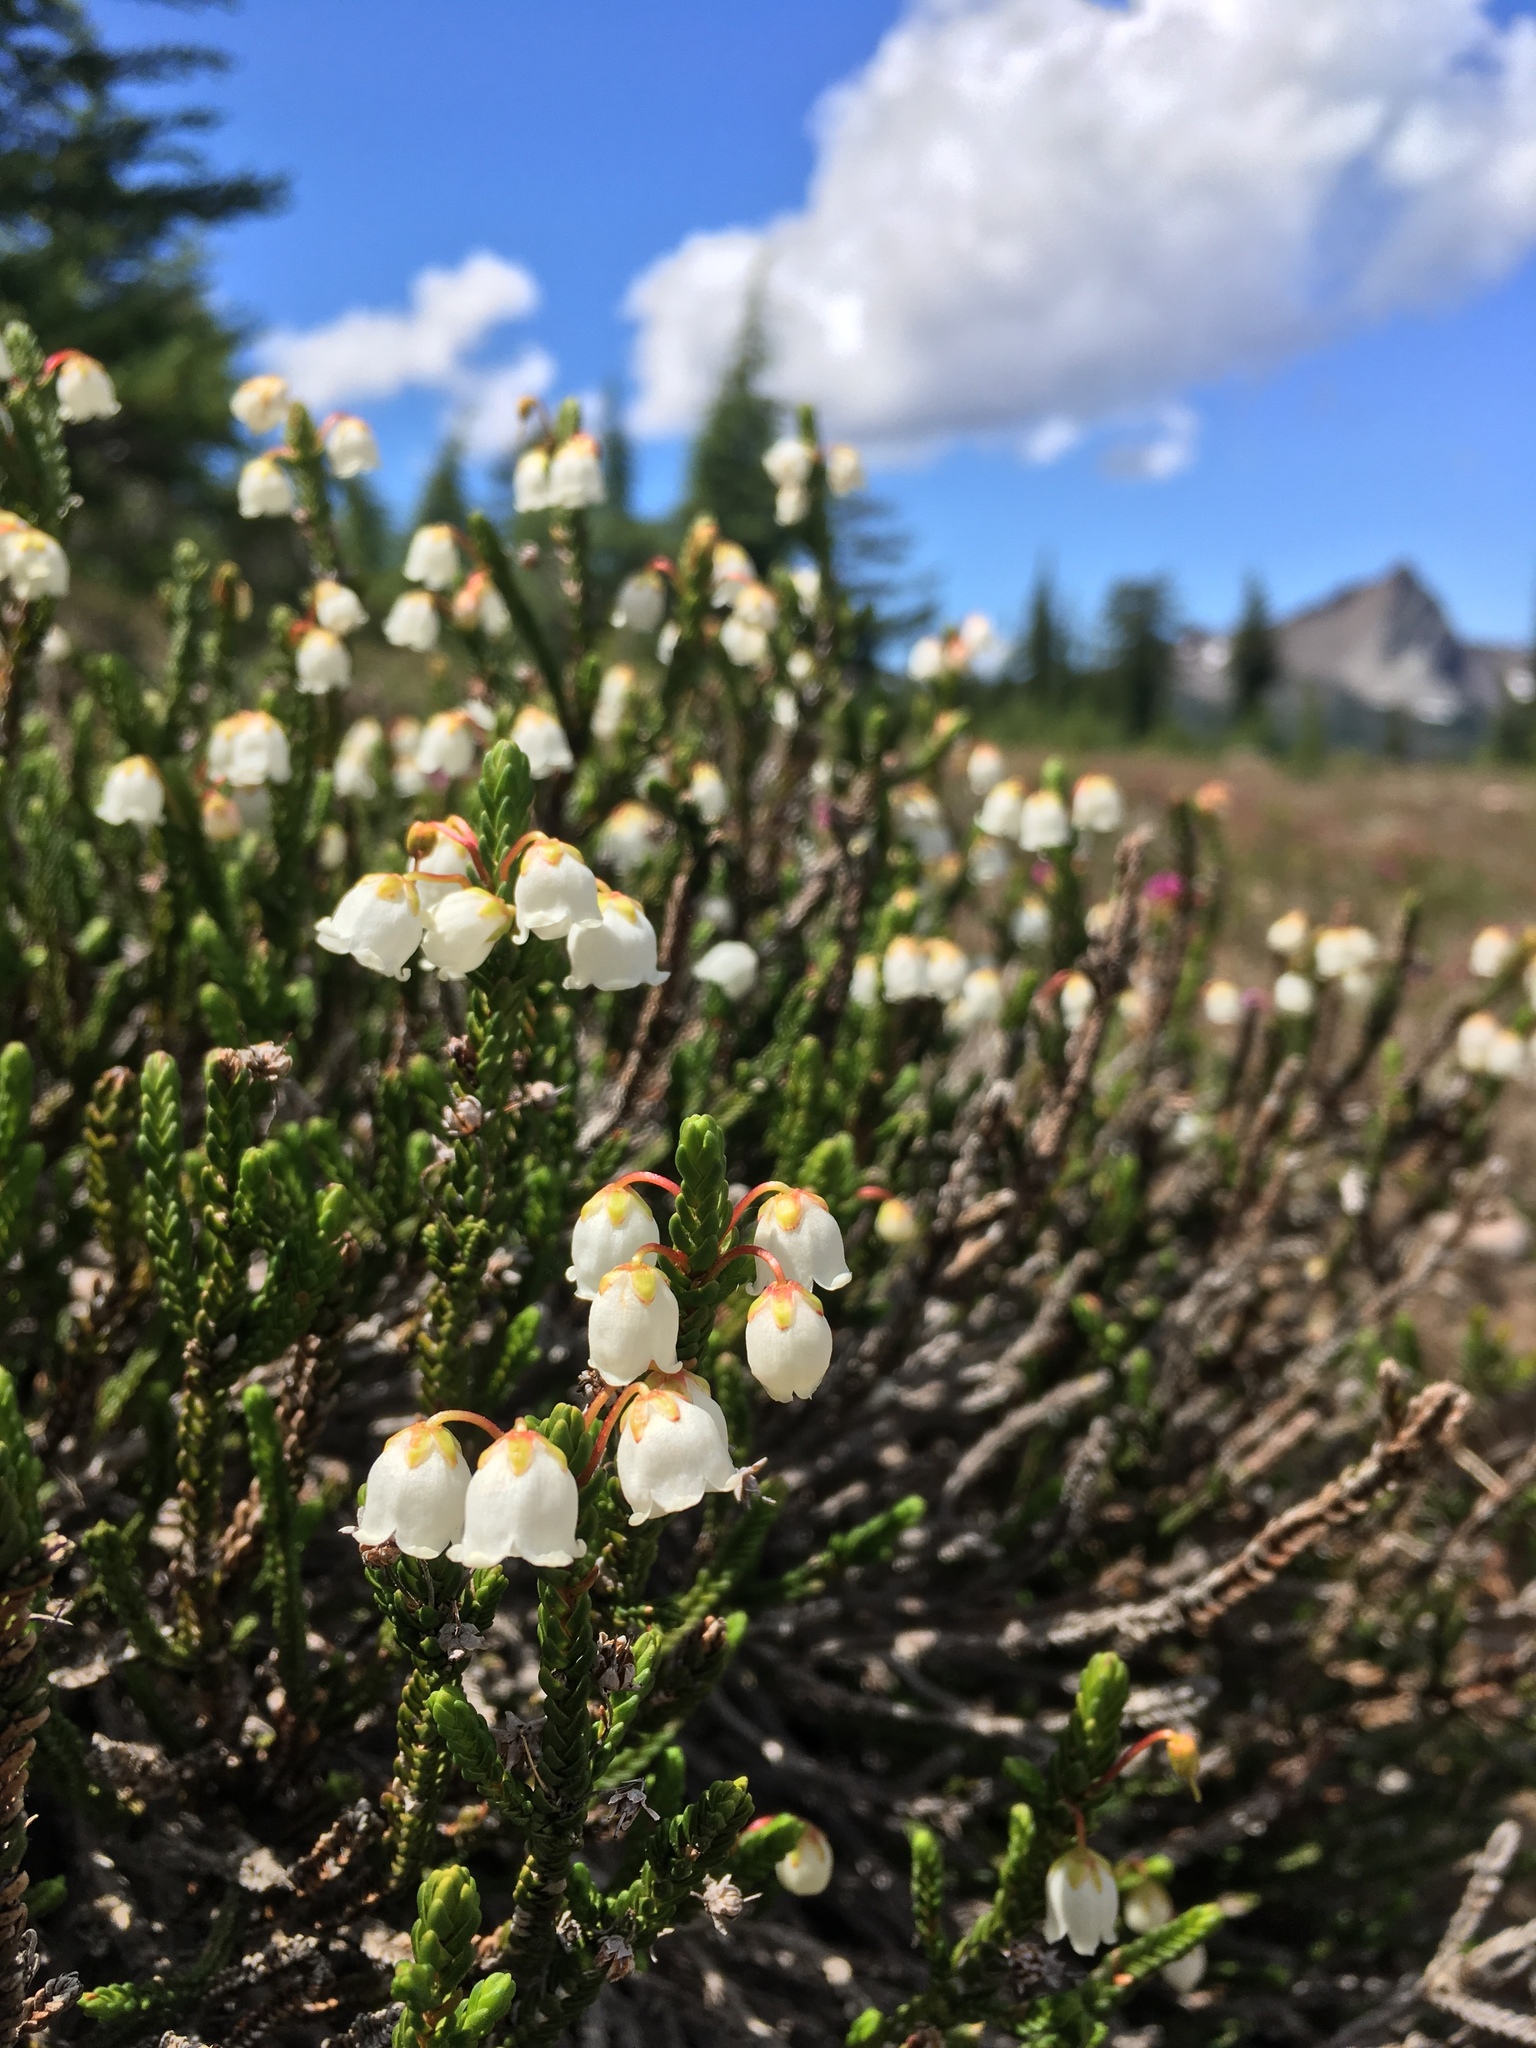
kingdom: Plantae
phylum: Tracheophyta
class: Magnoliopsida
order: Ericales
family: Ericaceae
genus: Cassiope
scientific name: Cassiope mertensiana
